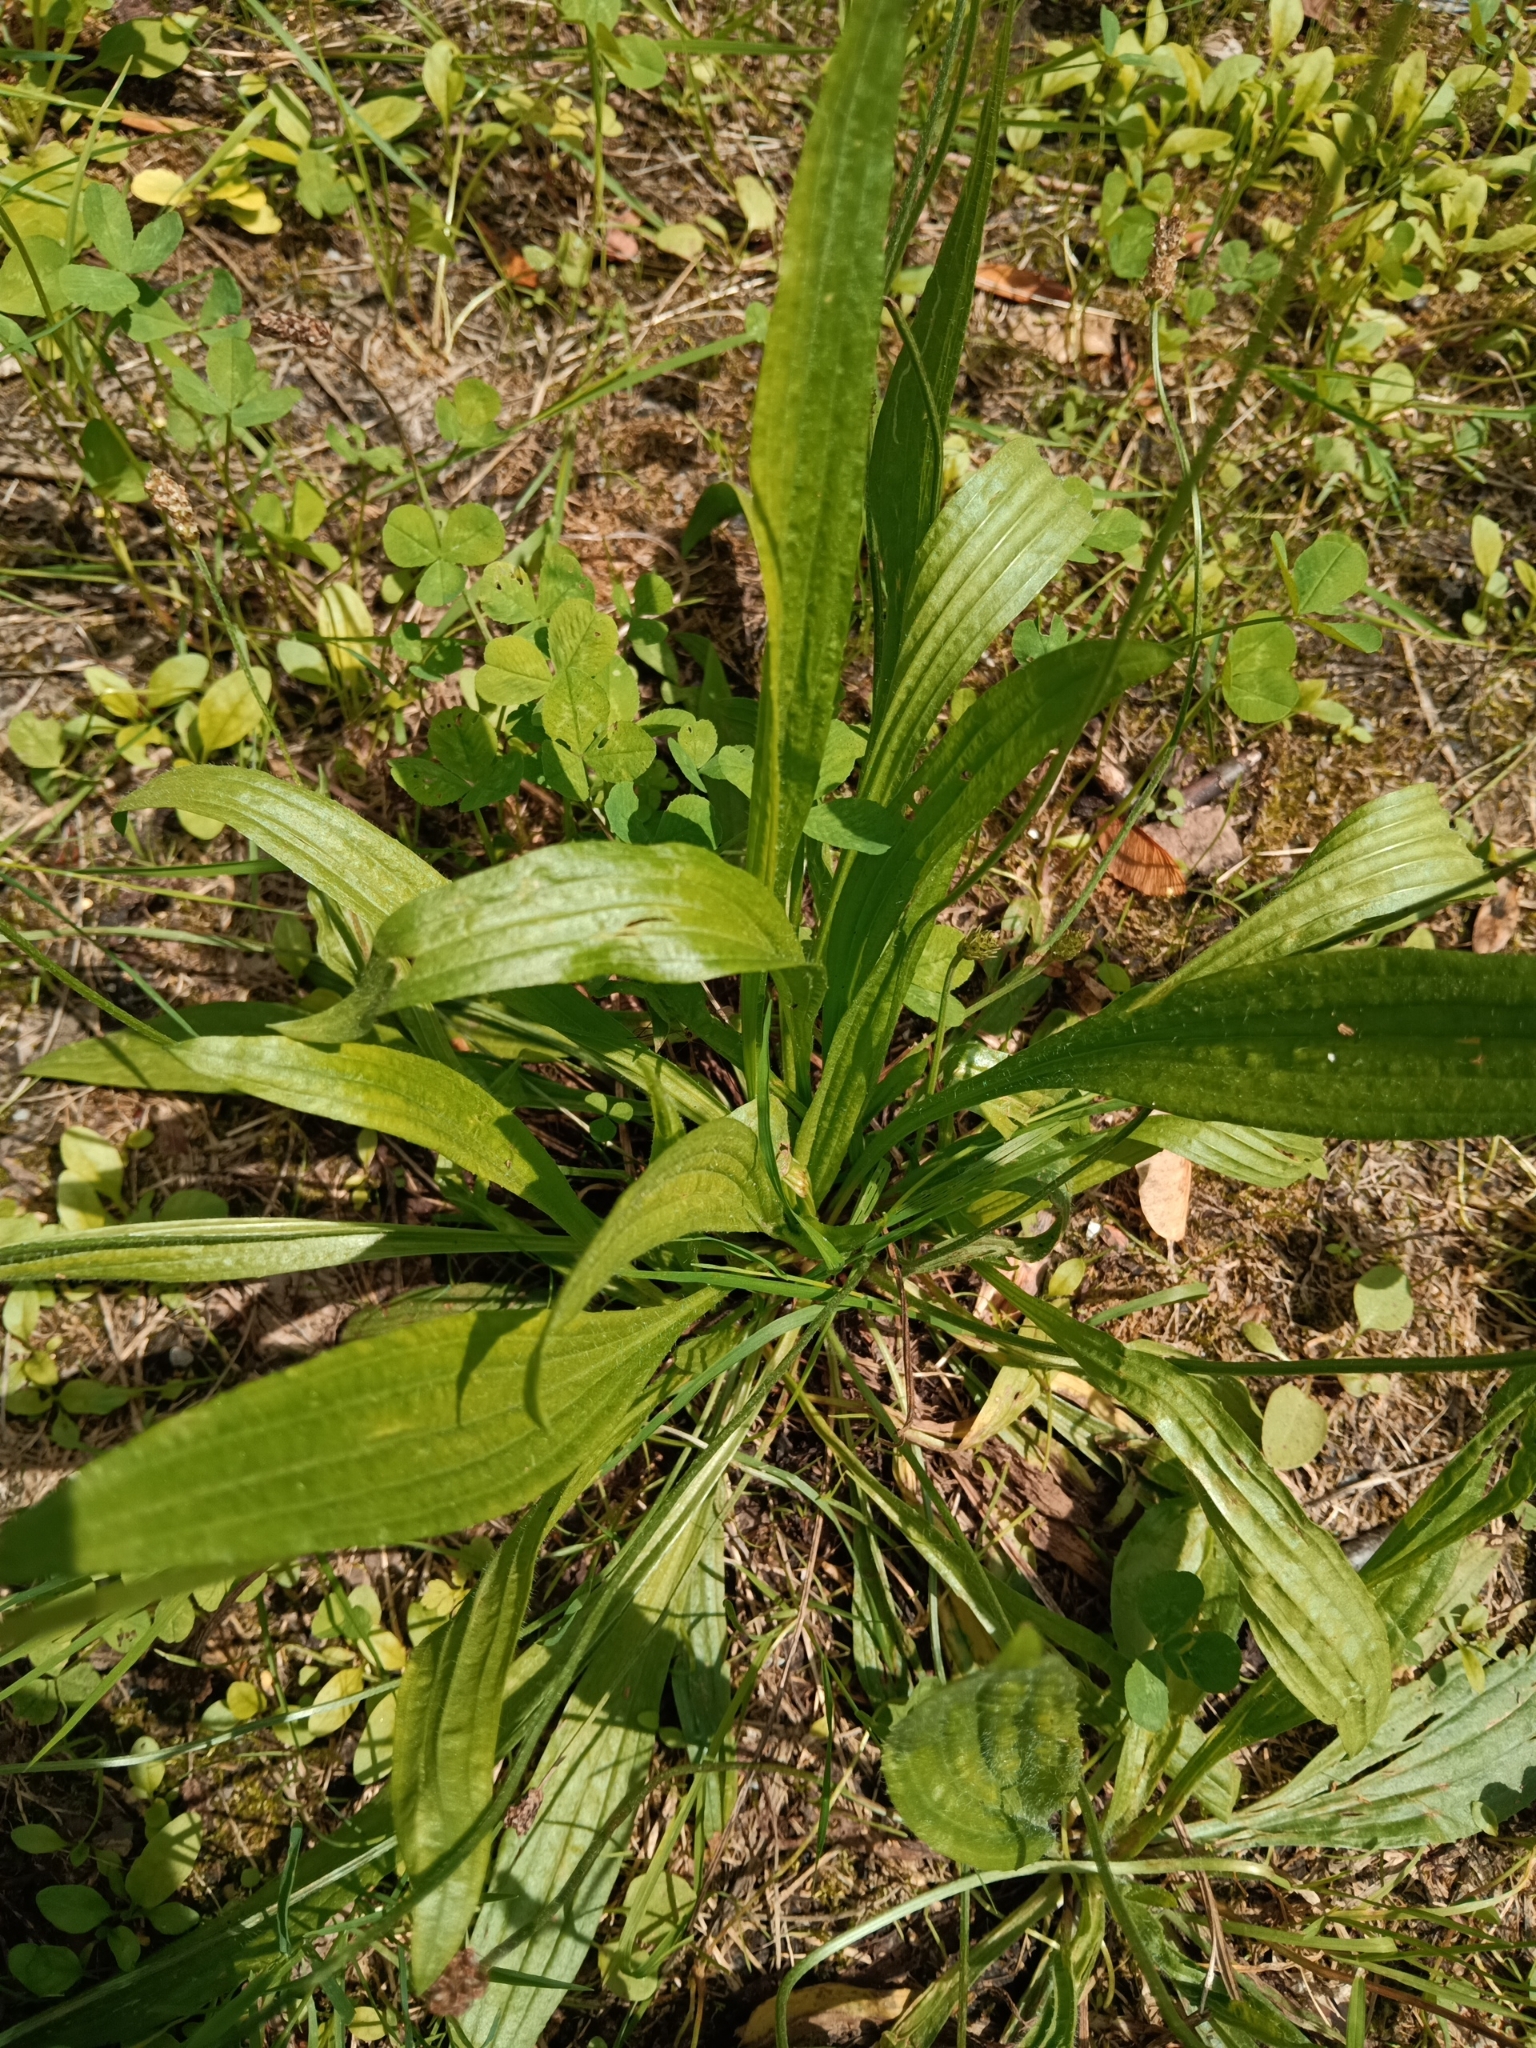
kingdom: Plantae
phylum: Tracheophyta
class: Magnoliopsida
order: Lamiales
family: Plantaginaceae
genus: Plantago
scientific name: Plantago lanceolata
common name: Ribwort plantain
